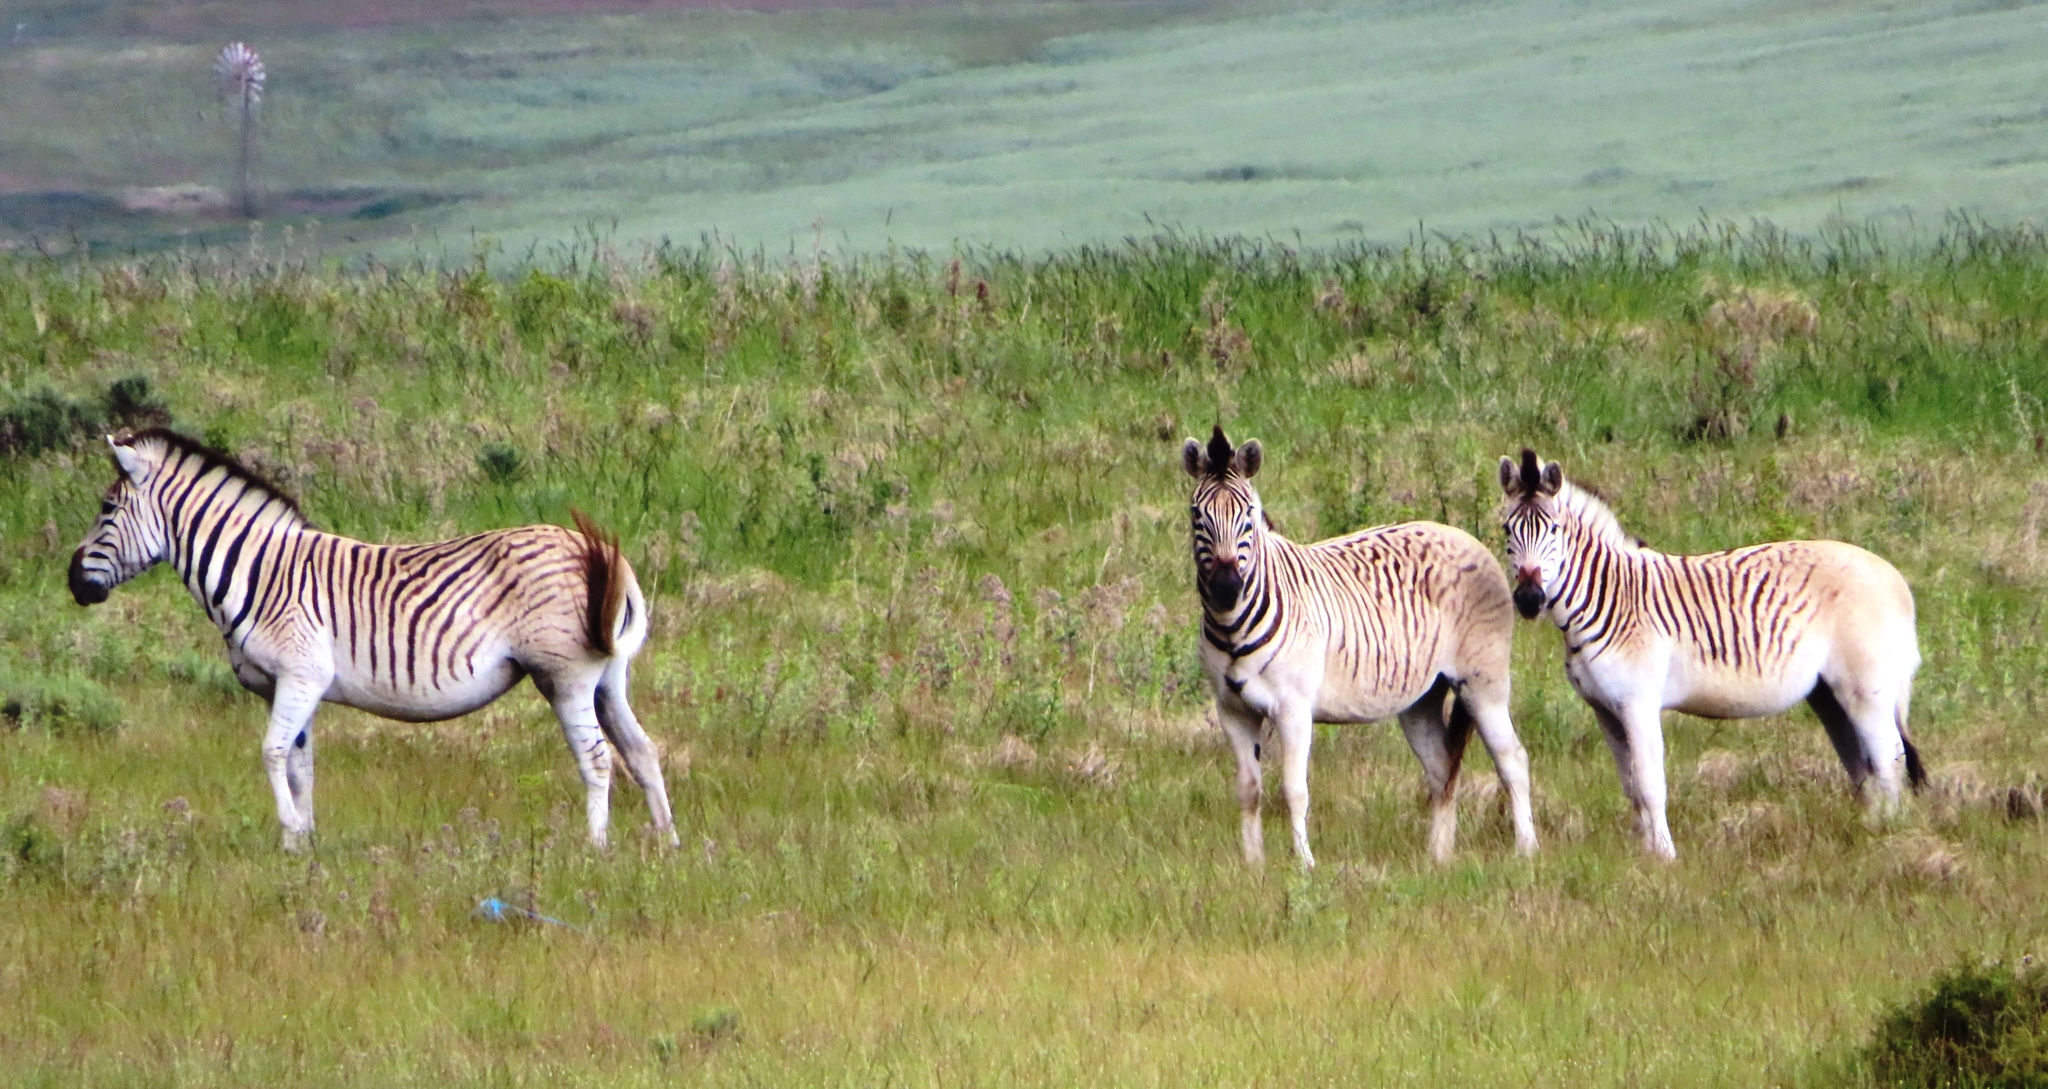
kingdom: Animalia
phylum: Chordata
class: Mammalia
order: Perissodactyla
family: Equidae
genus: Equus
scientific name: Equus quagga
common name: Plains zebra
